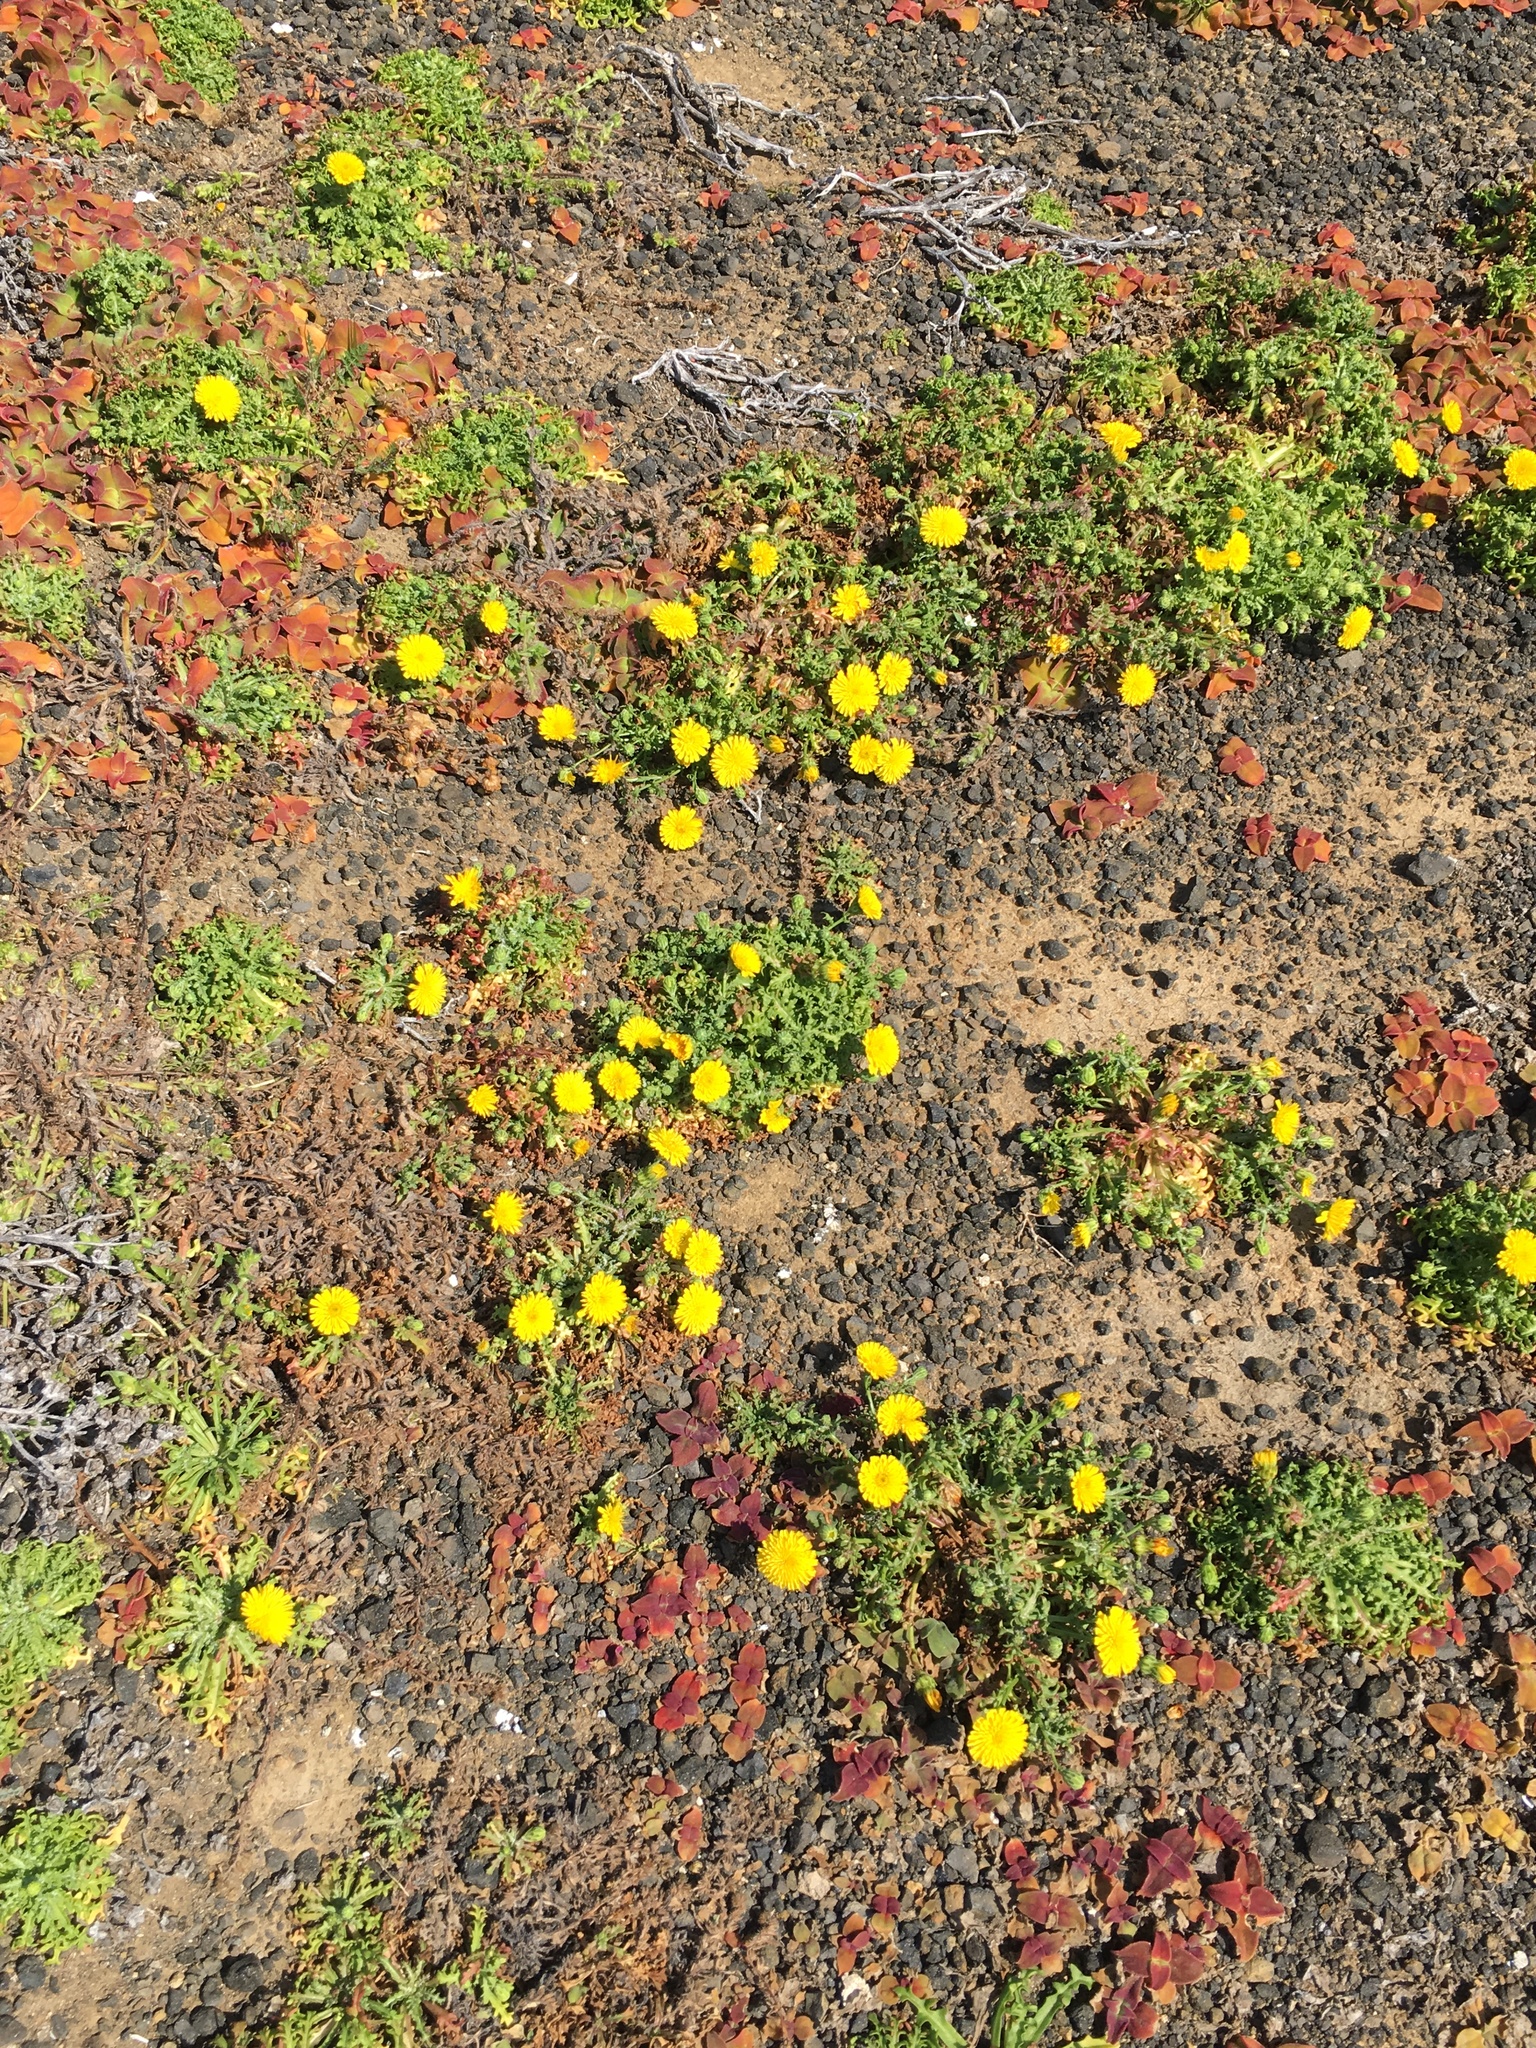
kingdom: Plantae
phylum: Tracheophyta
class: Magnoliopsida
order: Asterales
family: Asteraceae
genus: Malacothrix
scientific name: Malacothrix foliosa
